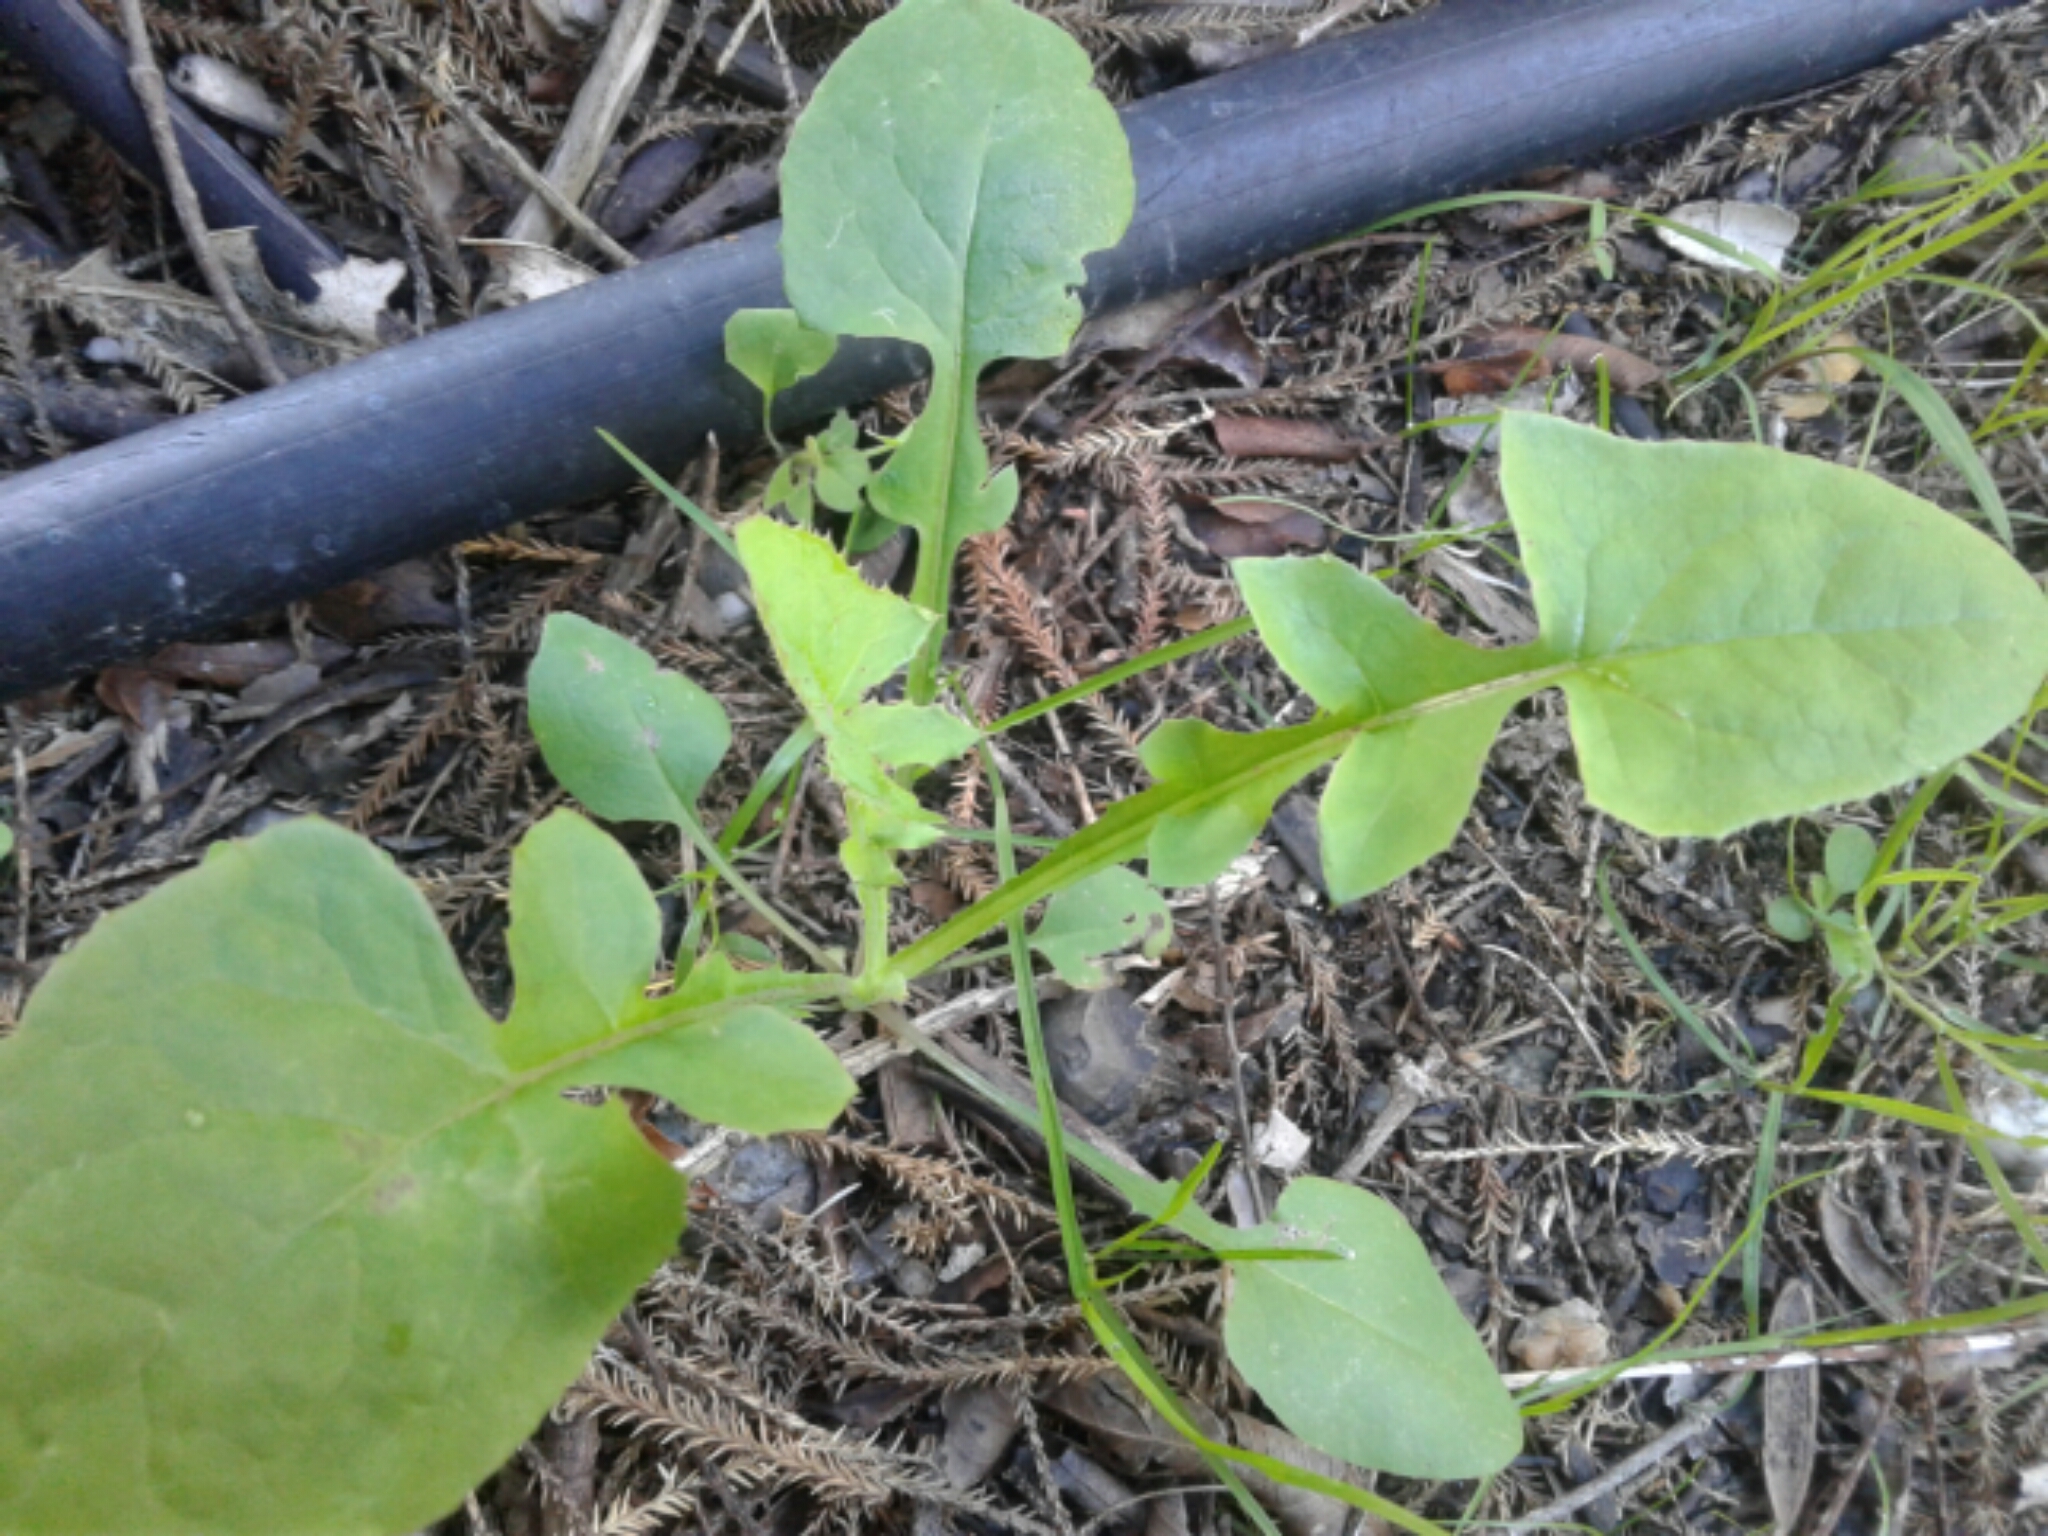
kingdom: Plantae
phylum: Tracheophyta
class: Magnoliopsida
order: Asterales
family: Asteraceae
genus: Sonchus
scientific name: Sonchus oleraceus
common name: Common sowthistle
